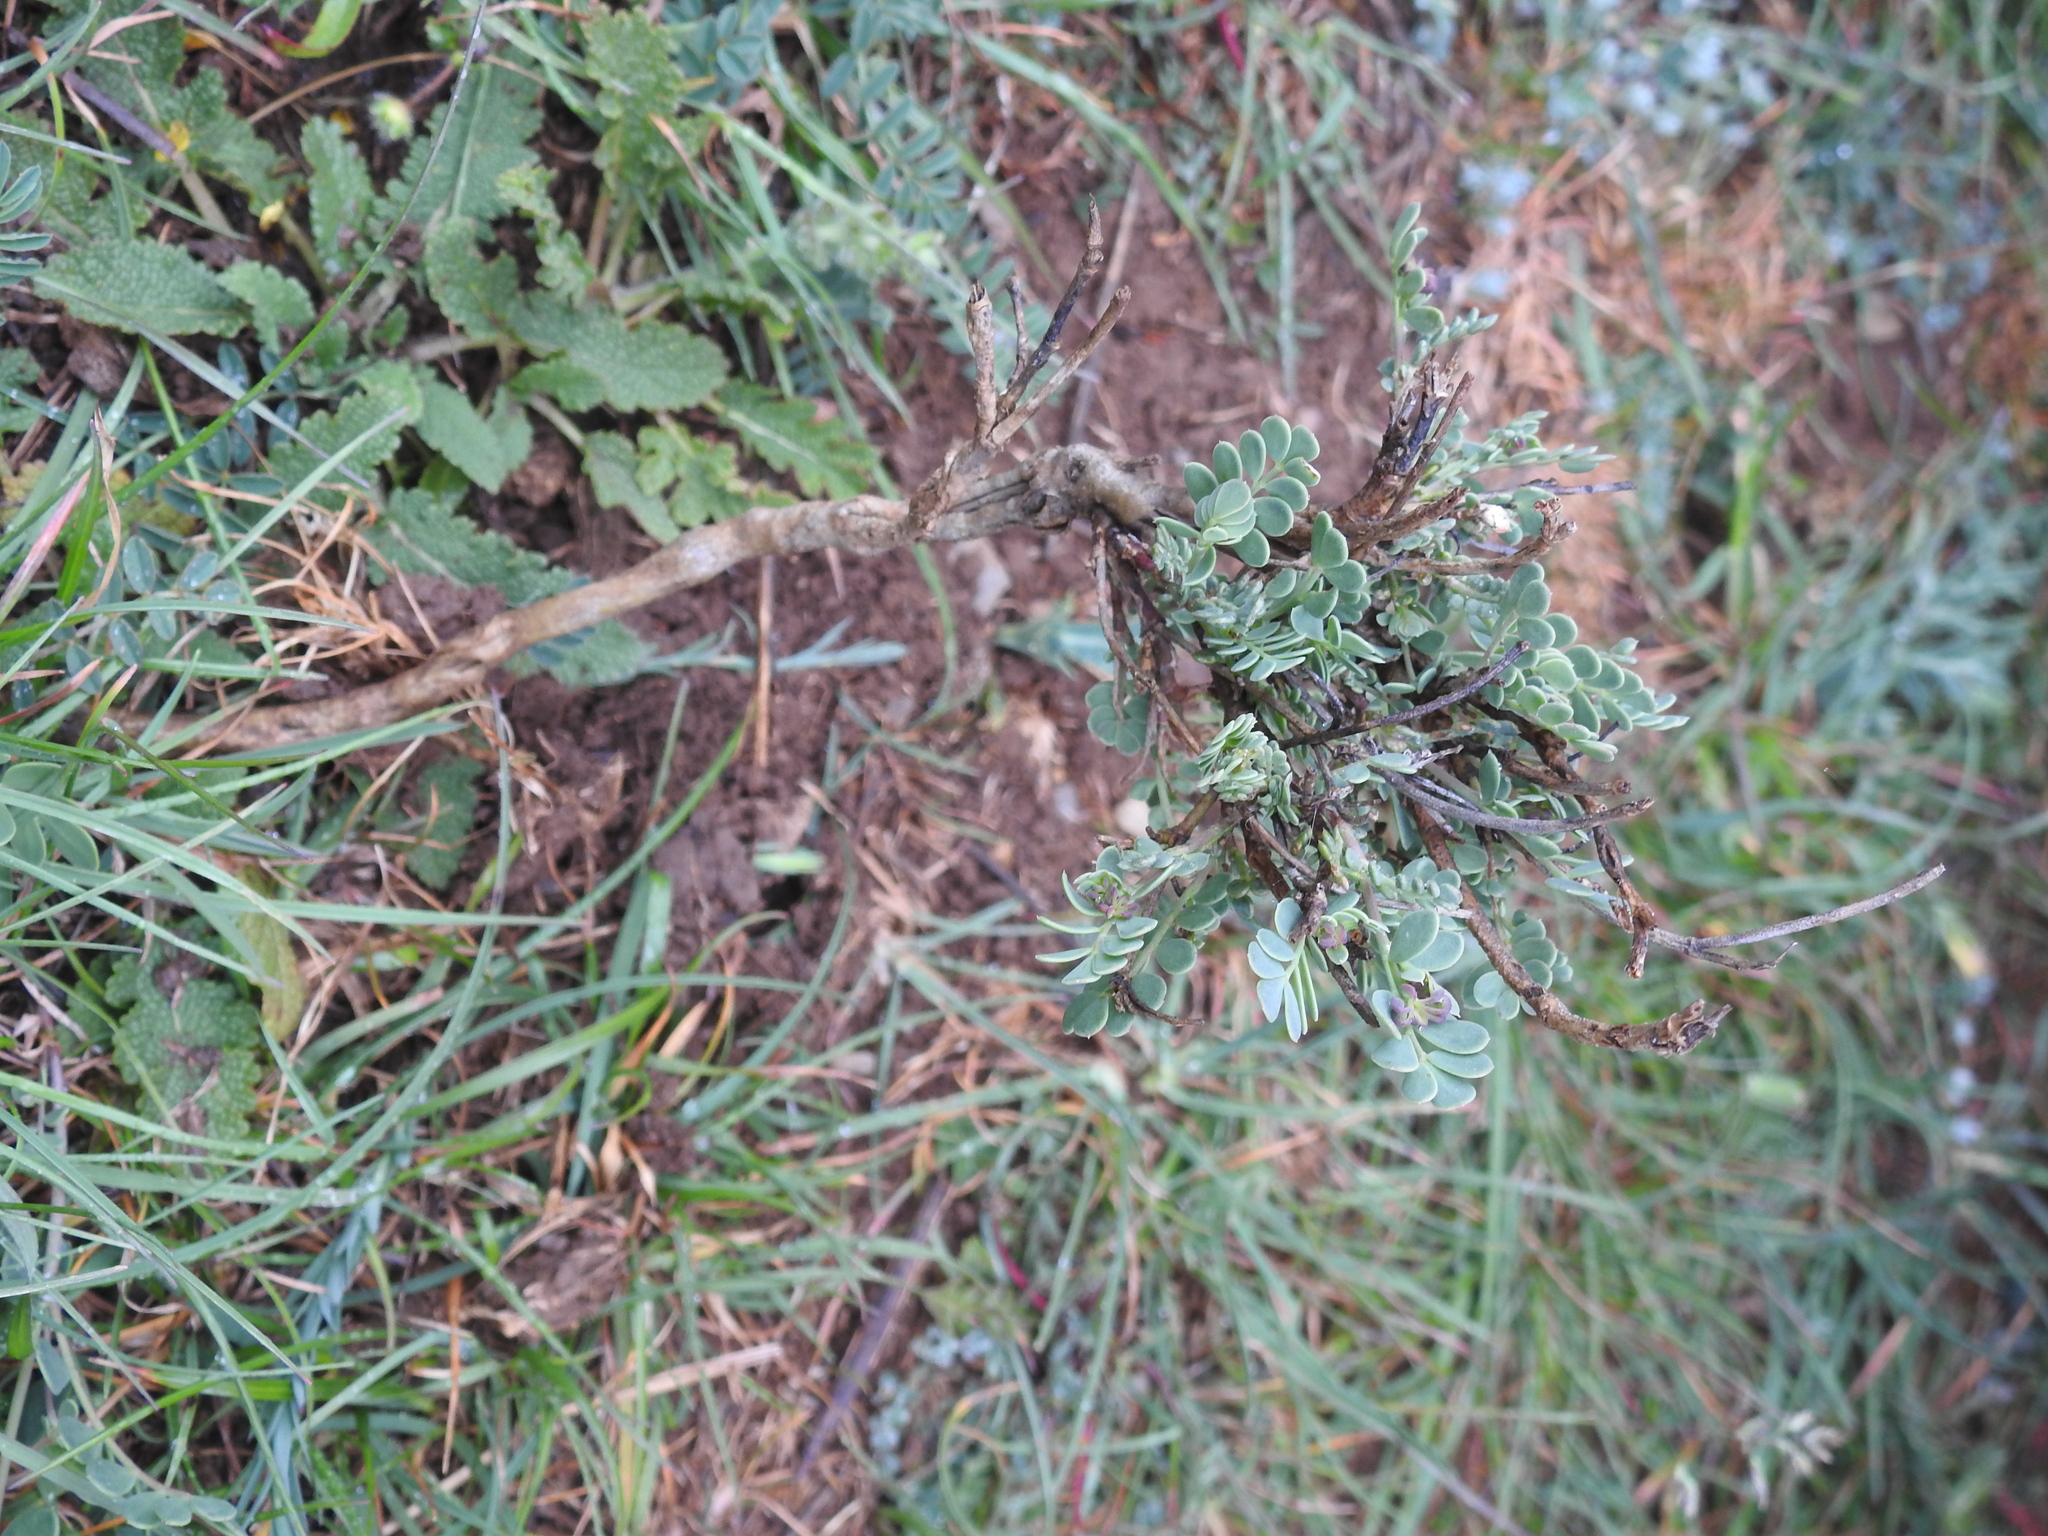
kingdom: Plantae
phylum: Tracheophyta
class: Magnoliopsida
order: Fabales
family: Fabaceae
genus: Coronilla
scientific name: Coronilla minima
